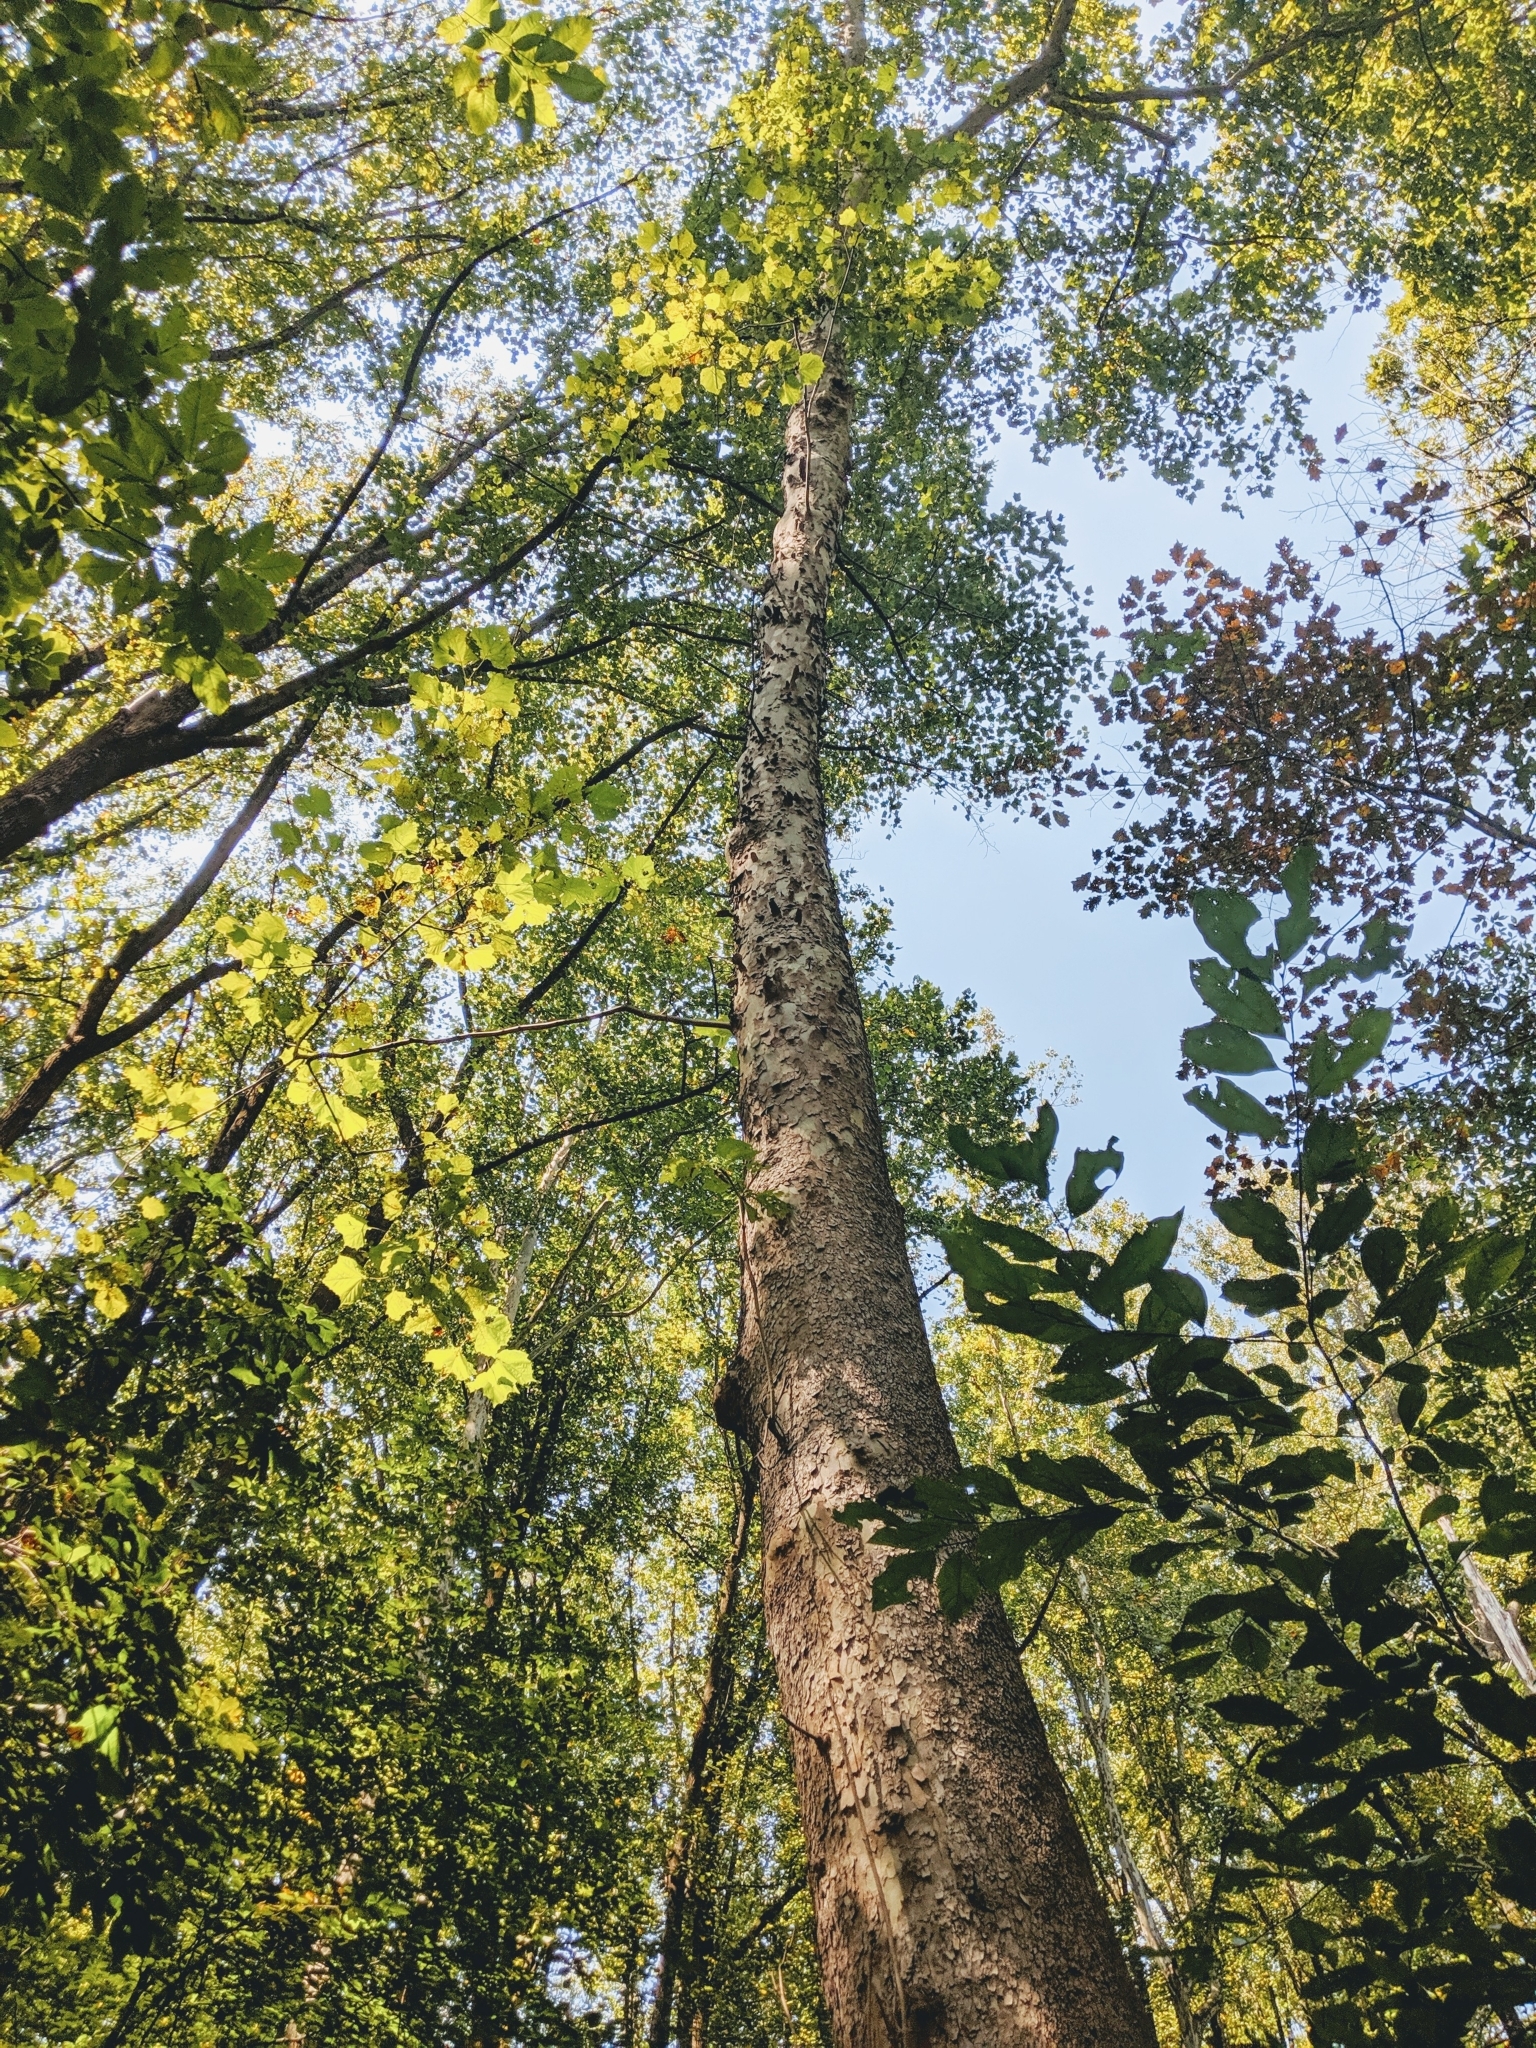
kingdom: Plantae
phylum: Tracheophyta
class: Magnoliopsida
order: Proteales
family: Platanaceae
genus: Platanus
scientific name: Platanus occidentalis
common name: American sycamore
